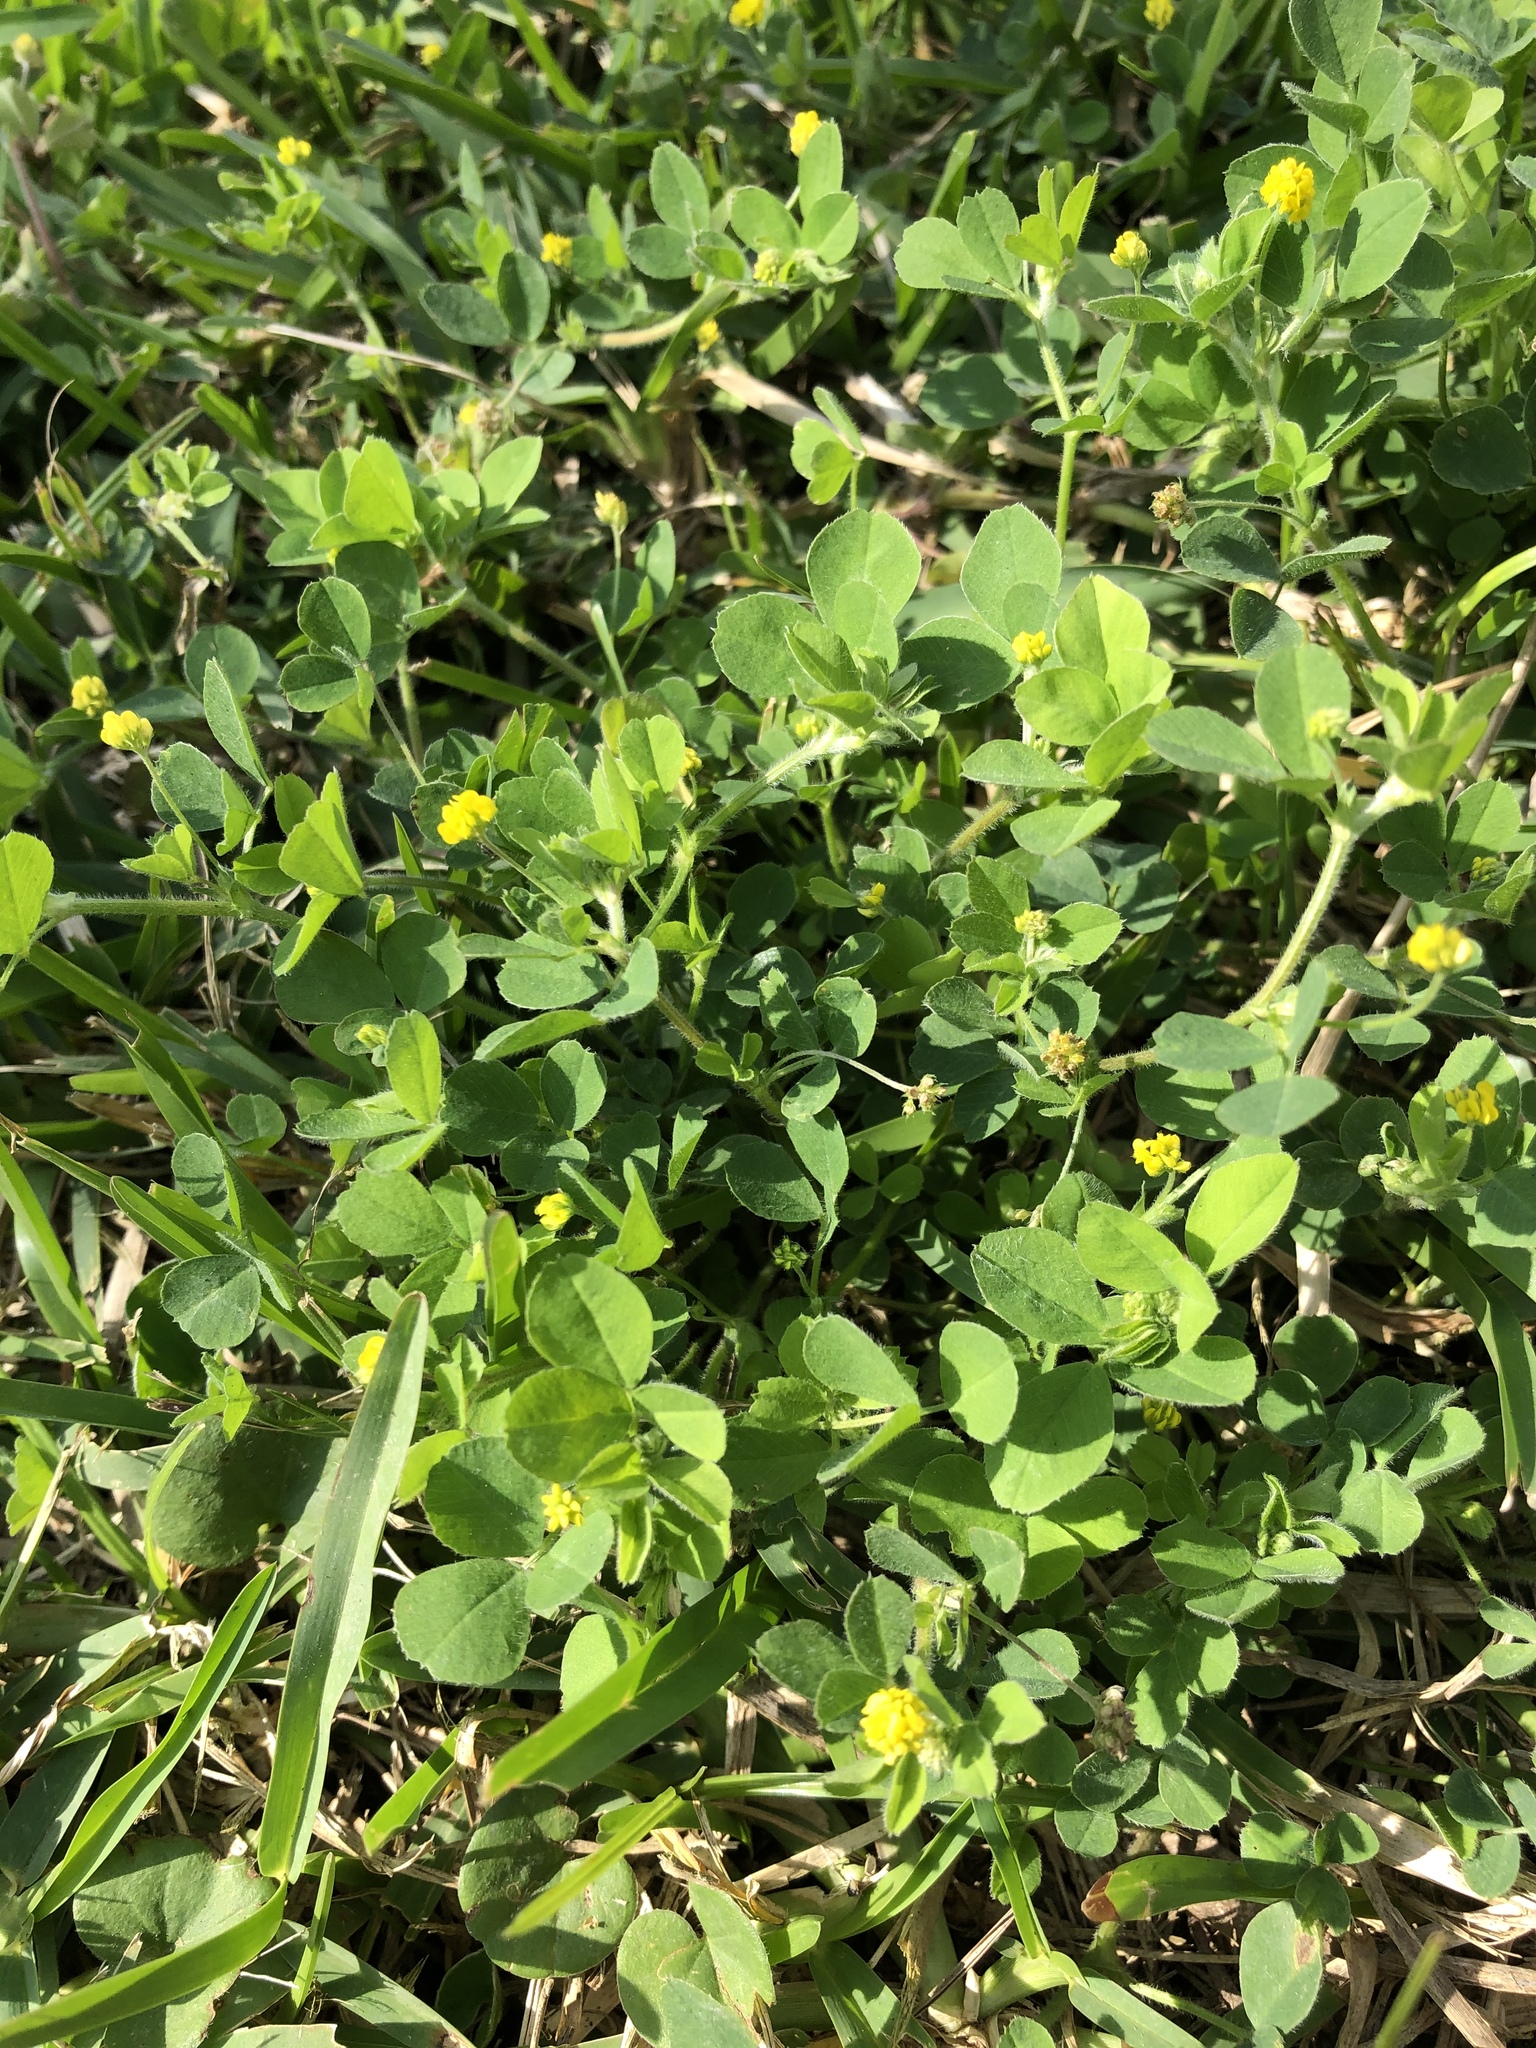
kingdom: Plantae
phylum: Tracheophyta
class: Magnoliopsida
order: Fabales
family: Fabaceae
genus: Medicago
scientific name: Medicago lupulina
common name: Black medick
